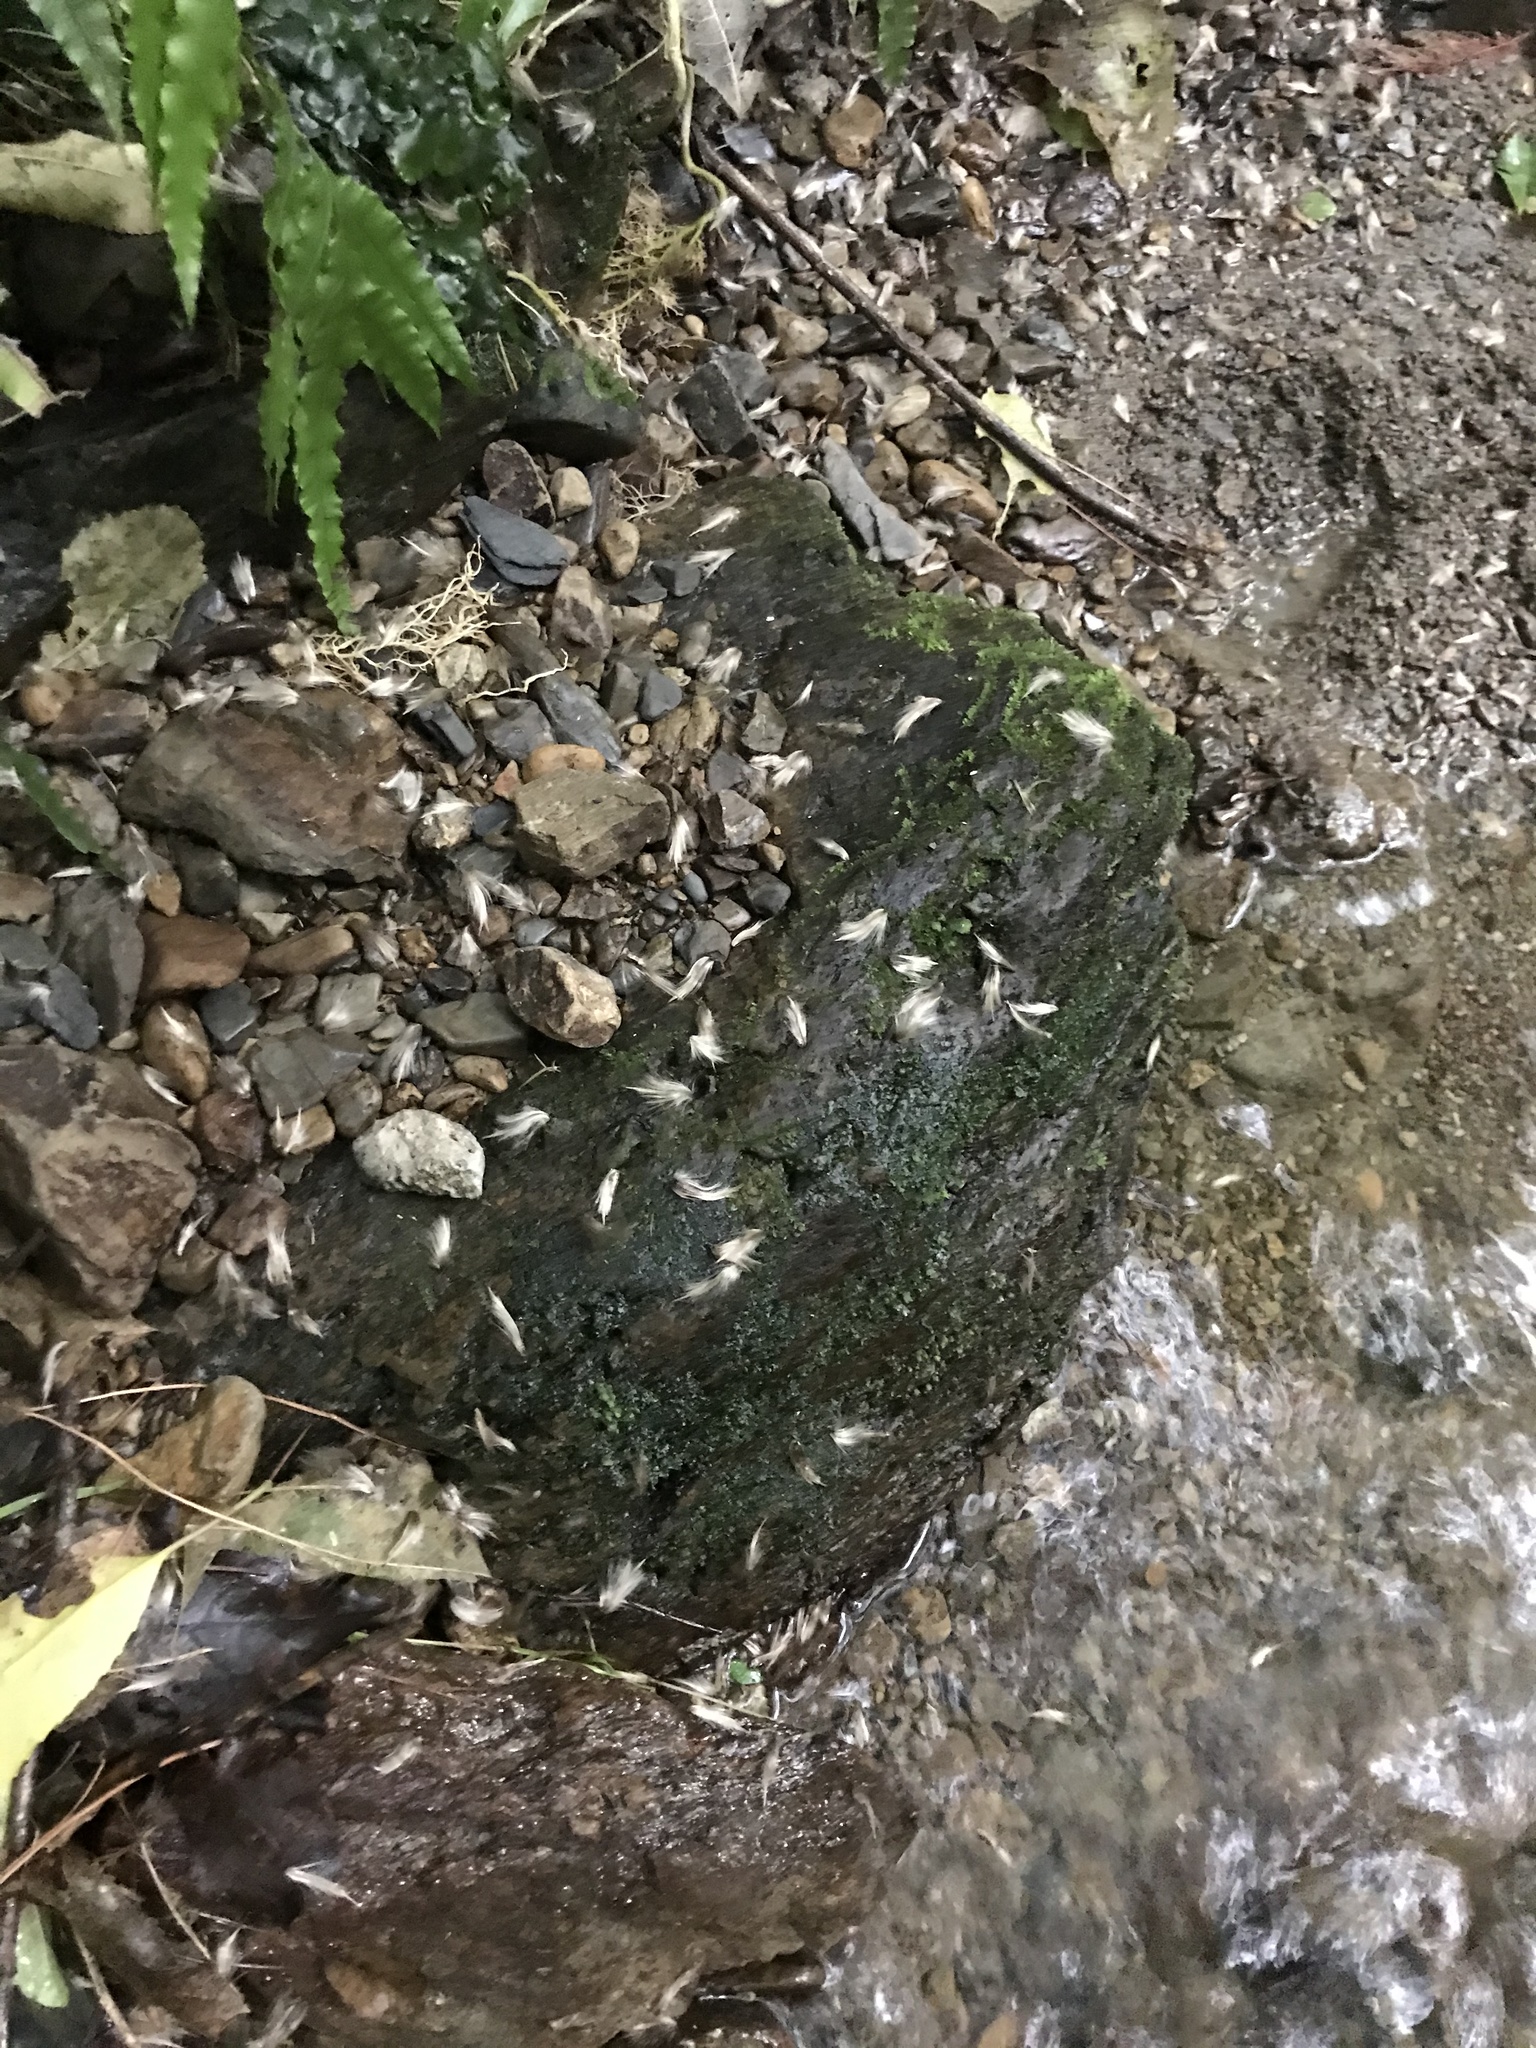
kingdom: Plantae
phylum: Tracheophyta
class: Magnoliopsida
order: Laurales
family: Atherospermataceae
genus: Laurelia
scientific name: Laurelia novae-zelandiae
